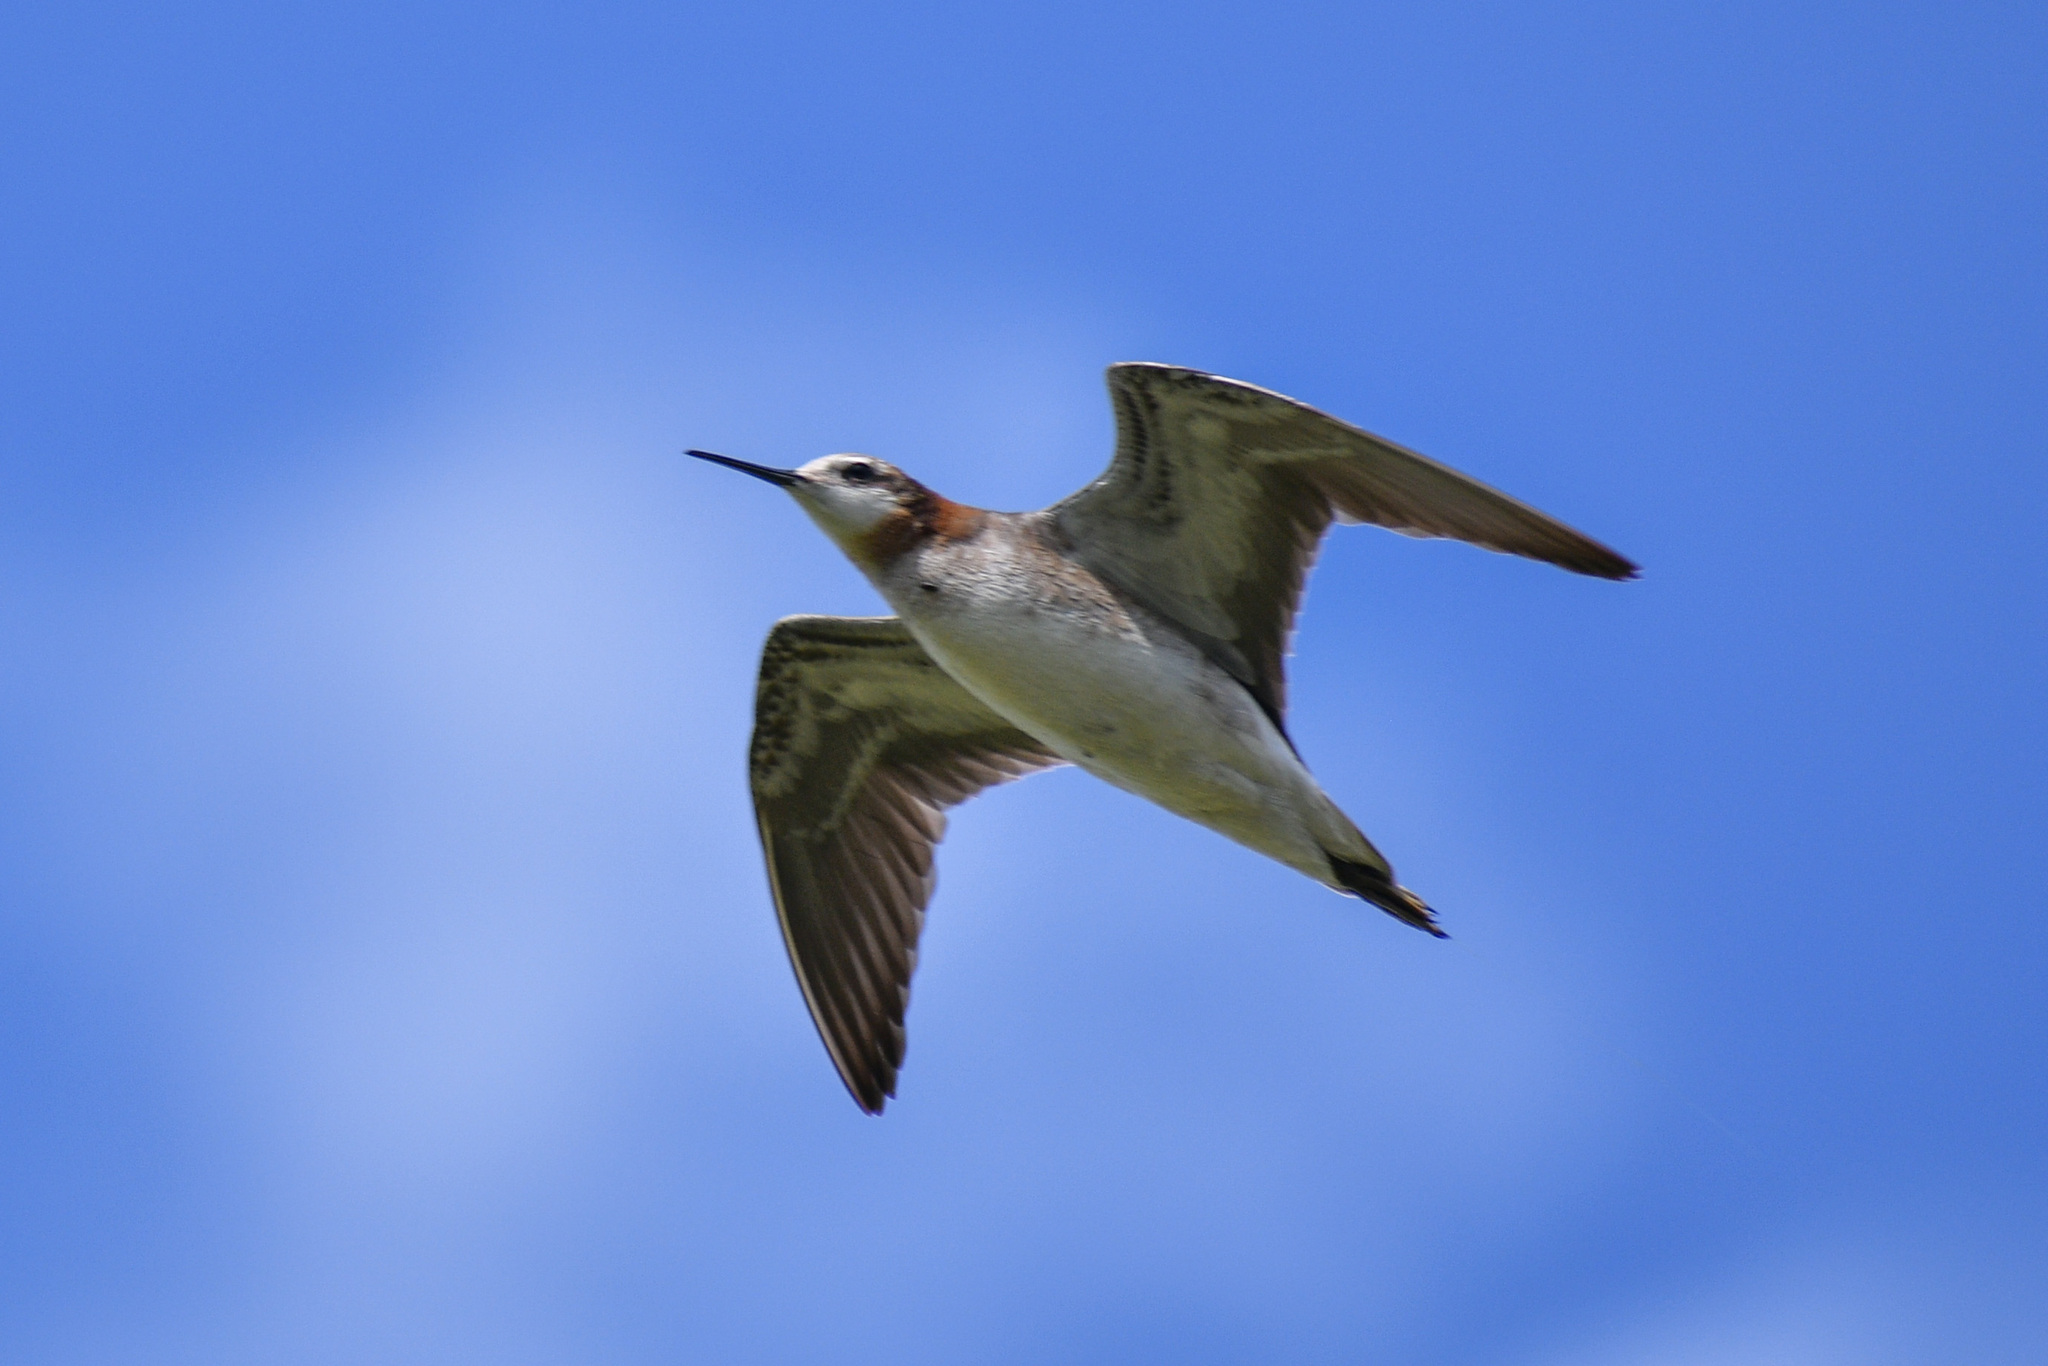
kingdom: Animalia
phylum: Chordata
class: Aves
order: Charadriiformes
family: Scolopacidae
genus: Phalaropus
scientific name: Phalaropus tricolor
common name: Wilson's phalarope
